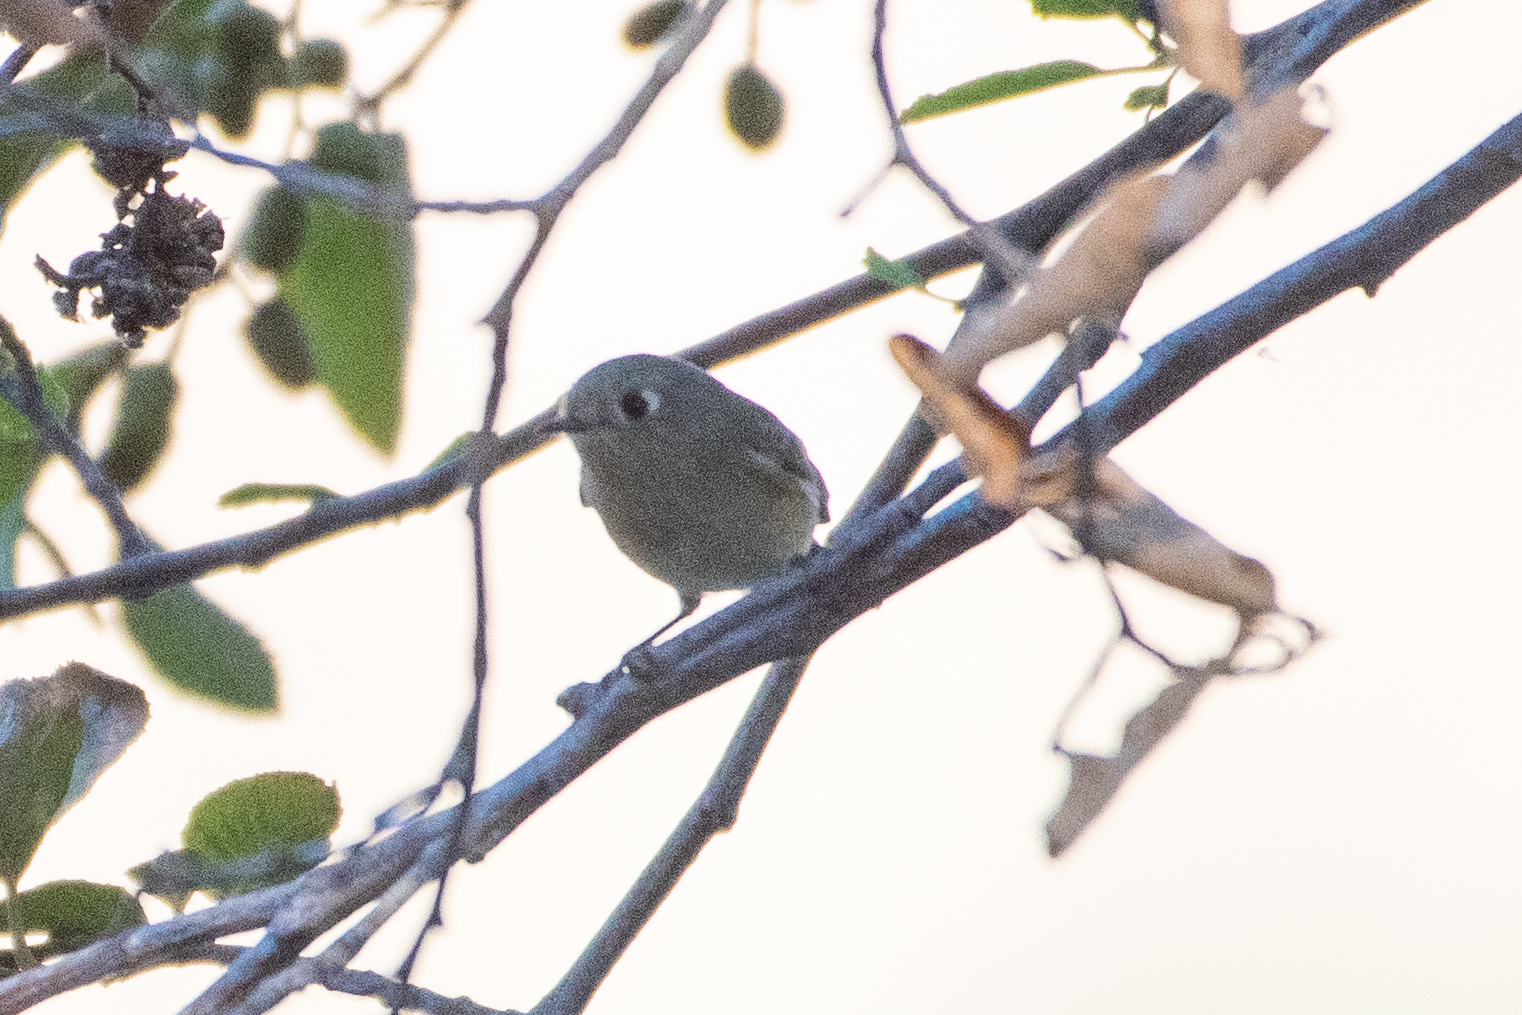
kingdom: Animalia
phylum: Chordata
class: Aves
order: Passeriformes
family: Regulidae
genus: Regulus
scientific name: Regulus calendula
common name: Ruby-crowned kinglet
